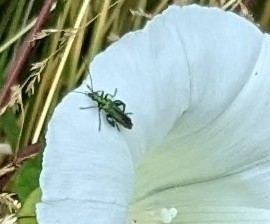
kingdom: Animalia
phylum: Arthropoda
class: Insecta
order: Coleoptera
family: Oedemeridae
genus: Oedemera
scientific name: Oedemera nobilis
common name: Swollen-thighed beetle
